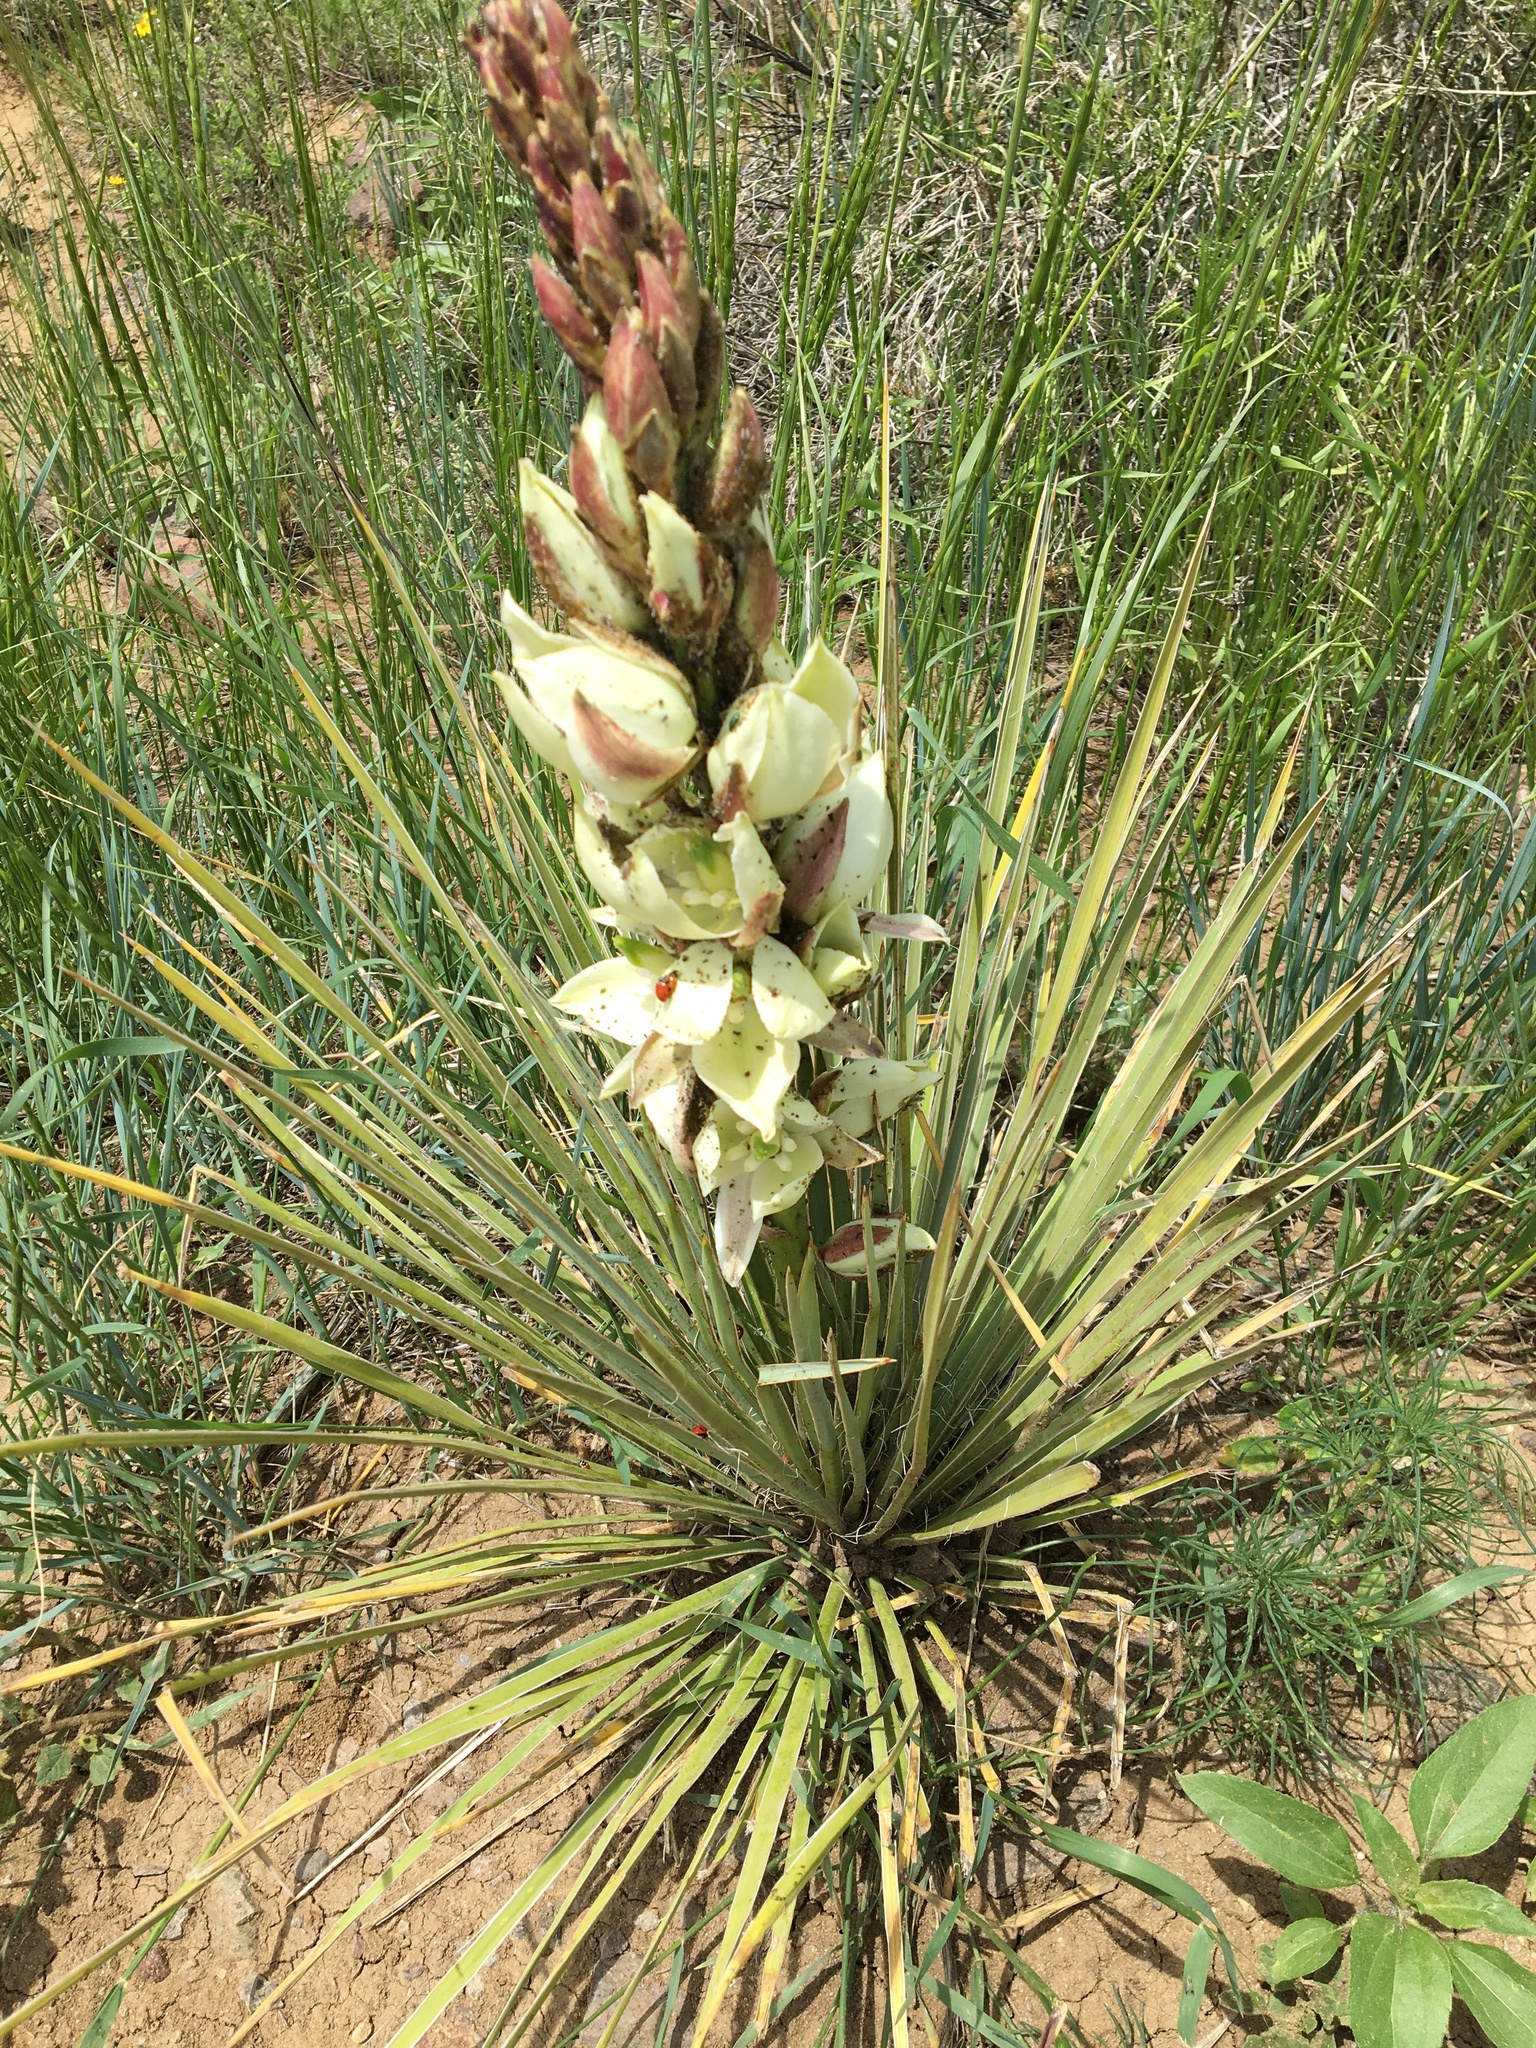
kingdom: Plantae
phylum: Tracheophyta
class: Liliopsida
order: Asparagales
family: Asparagaceae
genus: Yucca
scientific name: Yucca glauca
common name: Great plains yucca
